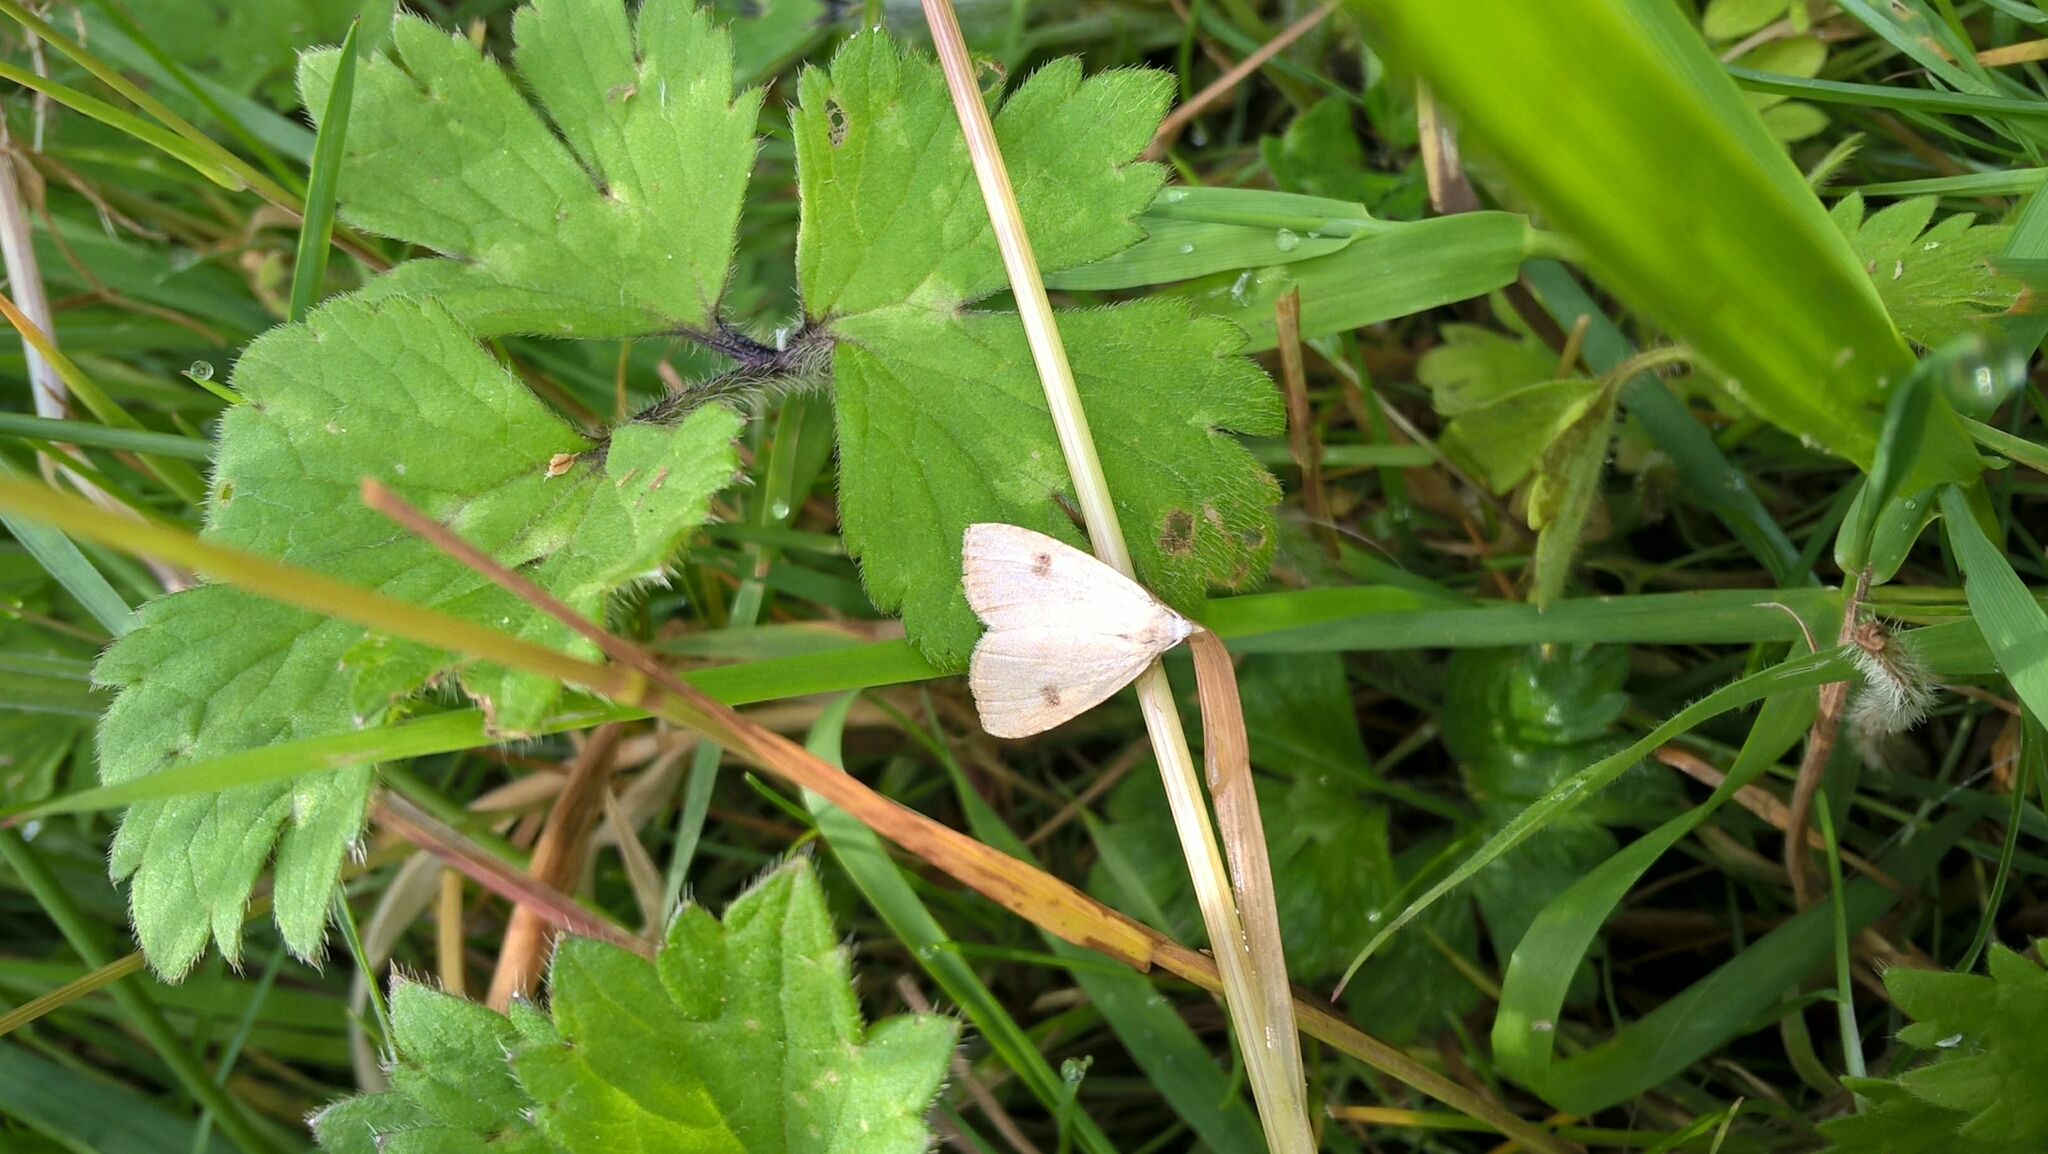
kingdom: Animalia
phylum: Arthropoda
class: Insecta
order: Lepidoptera
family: Erebidae
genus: Rivula
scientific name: Rivula sericealis
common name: Straw dot
